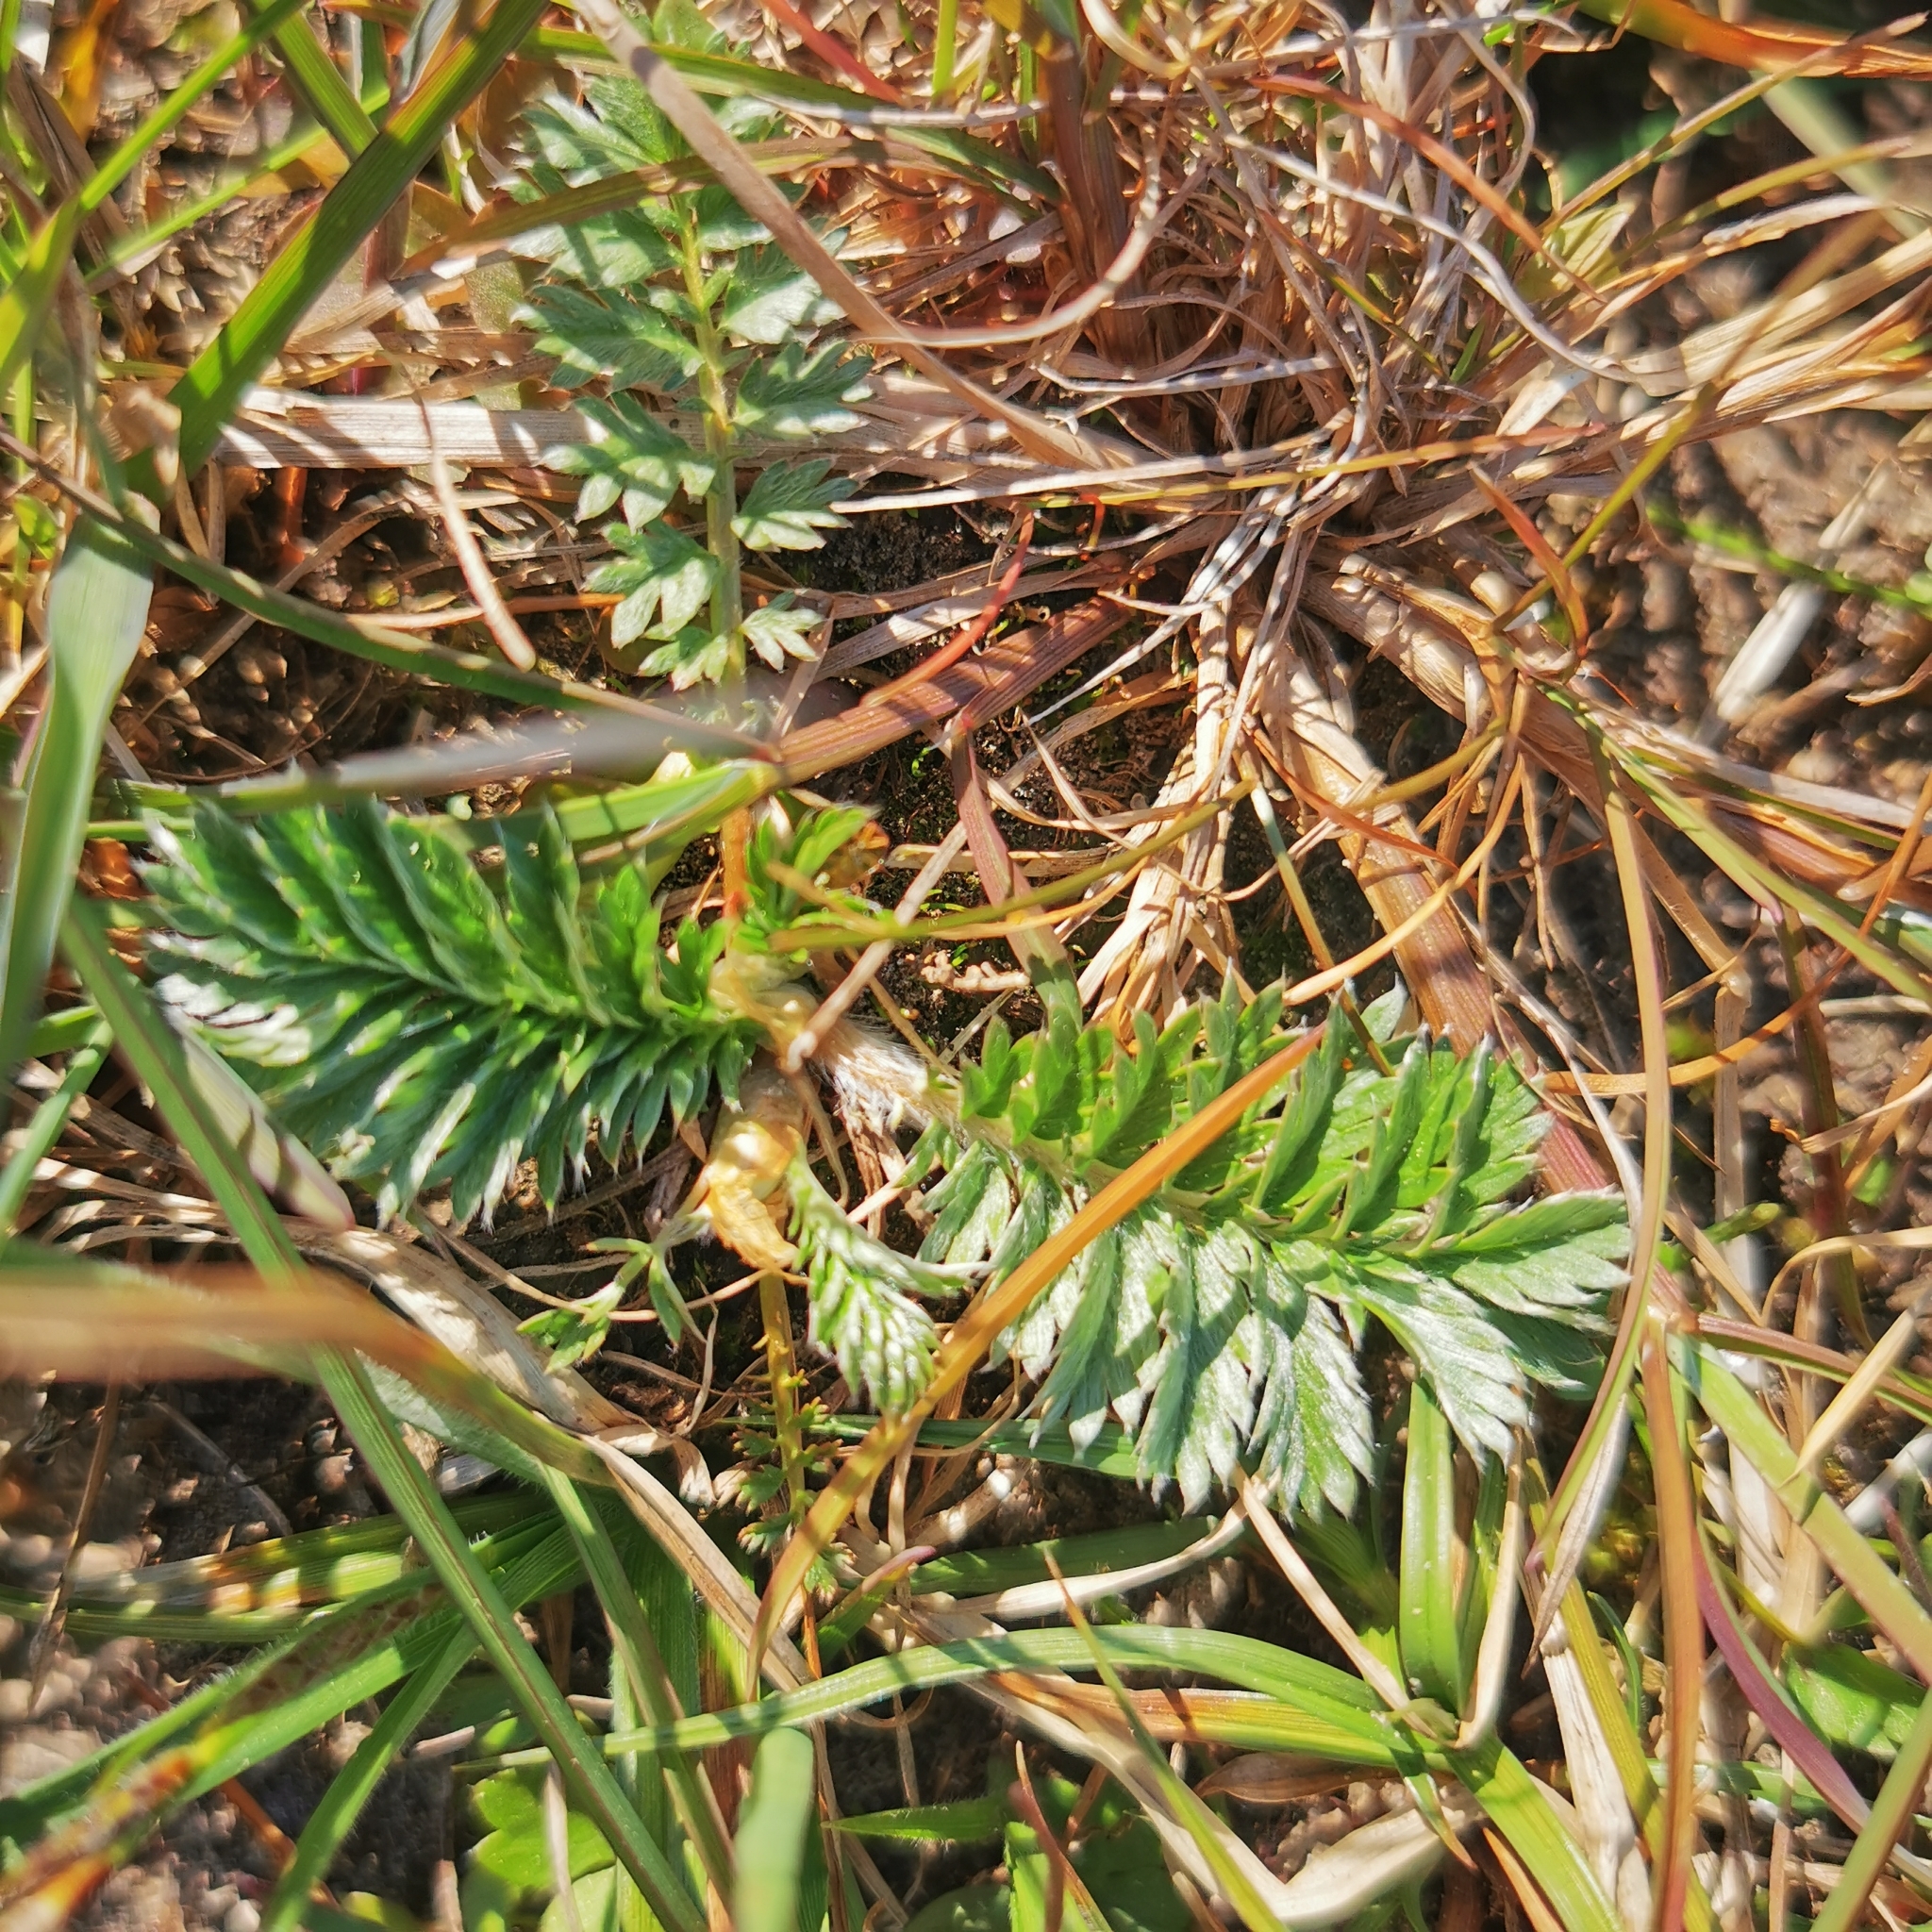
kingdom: Plantae
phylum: Tracheophyta
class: Magnoliopsida
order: Rosales
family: Rosaceae
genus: Argentina
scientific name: Argentina anserina
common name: Common silverweed
